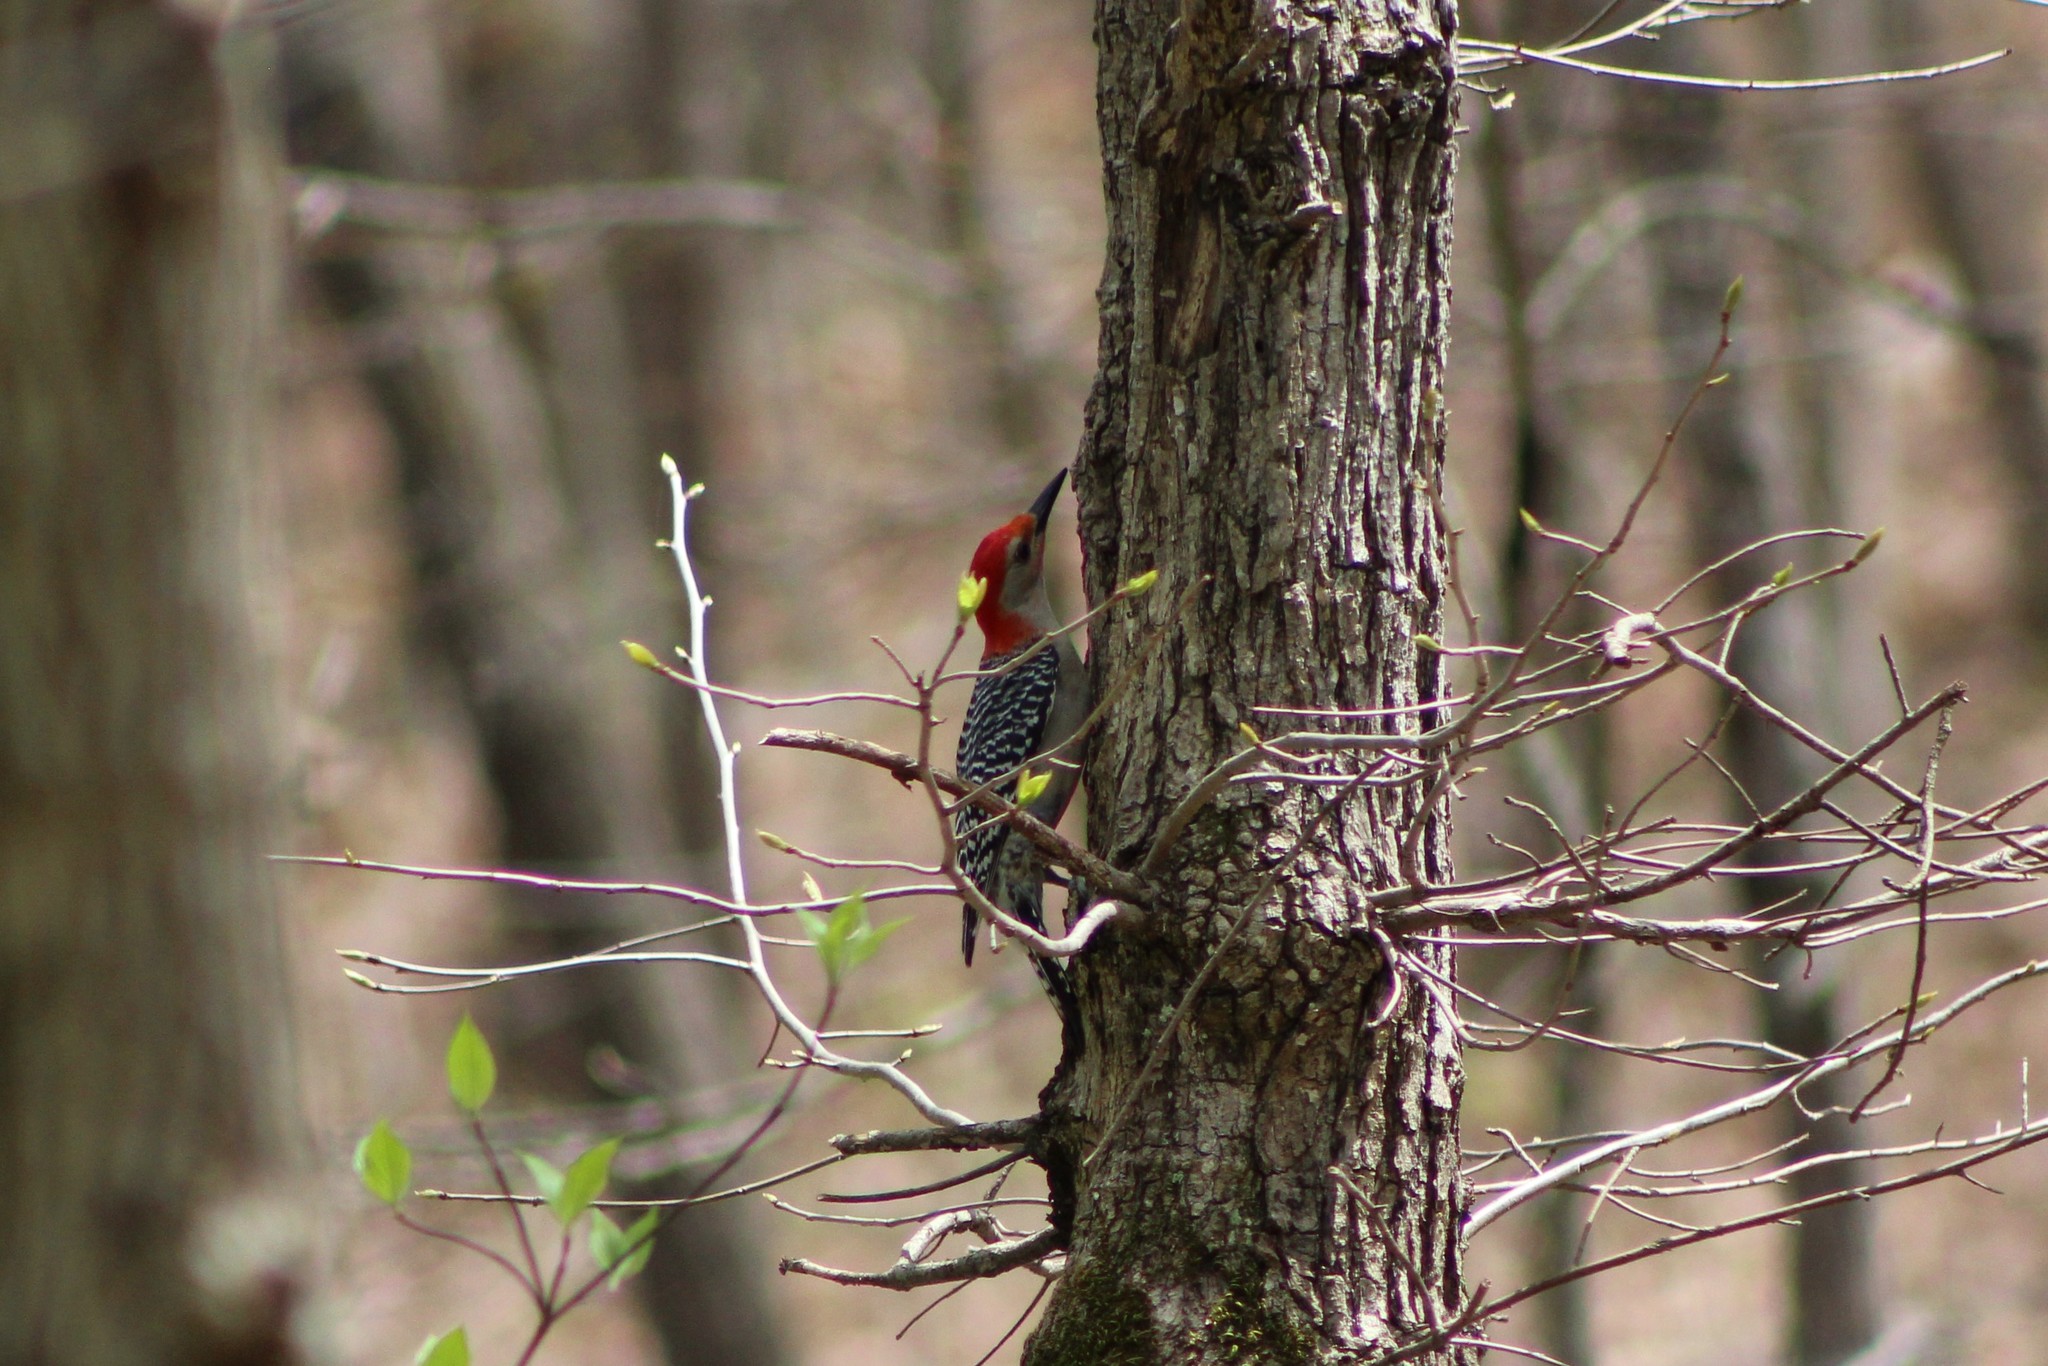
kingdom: Animalia
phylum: Chordata
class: Aves
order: Piciformes
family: Picidae
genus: Melanerpes
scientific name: Melanerpes carolinus
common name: Red-bellied woodpecker
